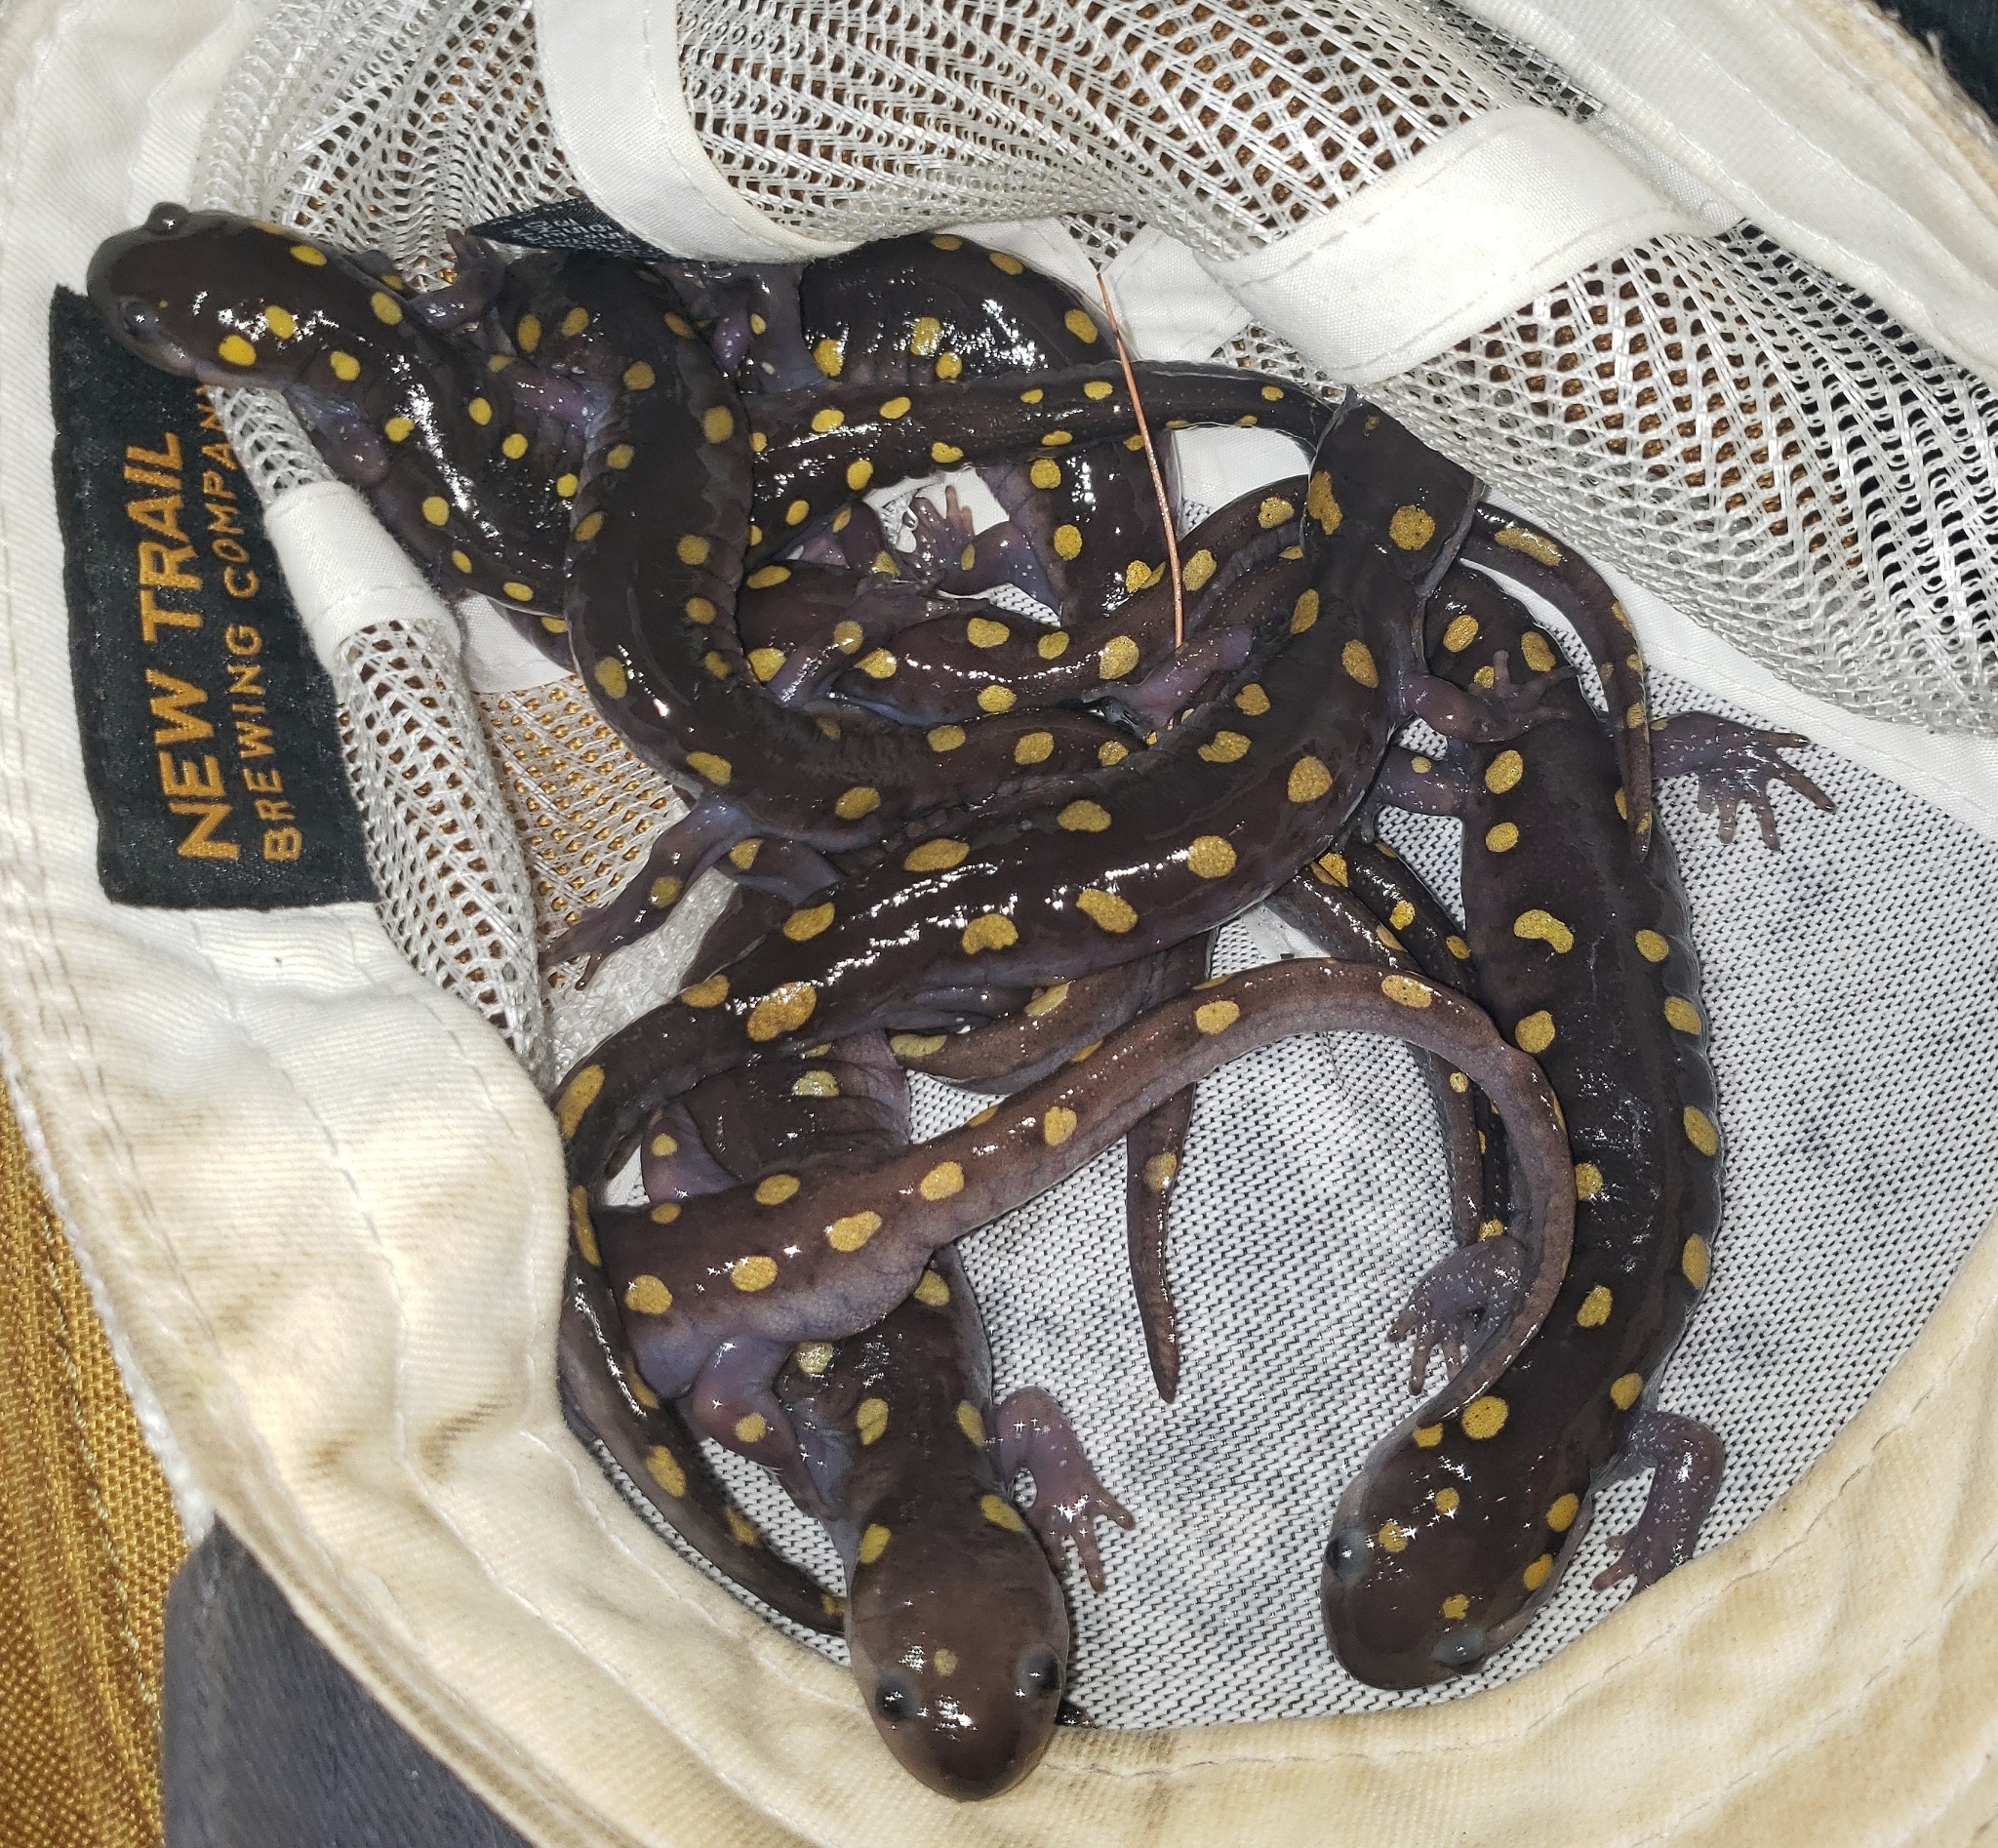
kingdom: Animalia
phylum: Chordata
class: Amphibia
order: Caudata
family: Ambystomatidae
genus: Ambystoma
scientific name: Ambystoma maculatum
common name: Spotted salamander
